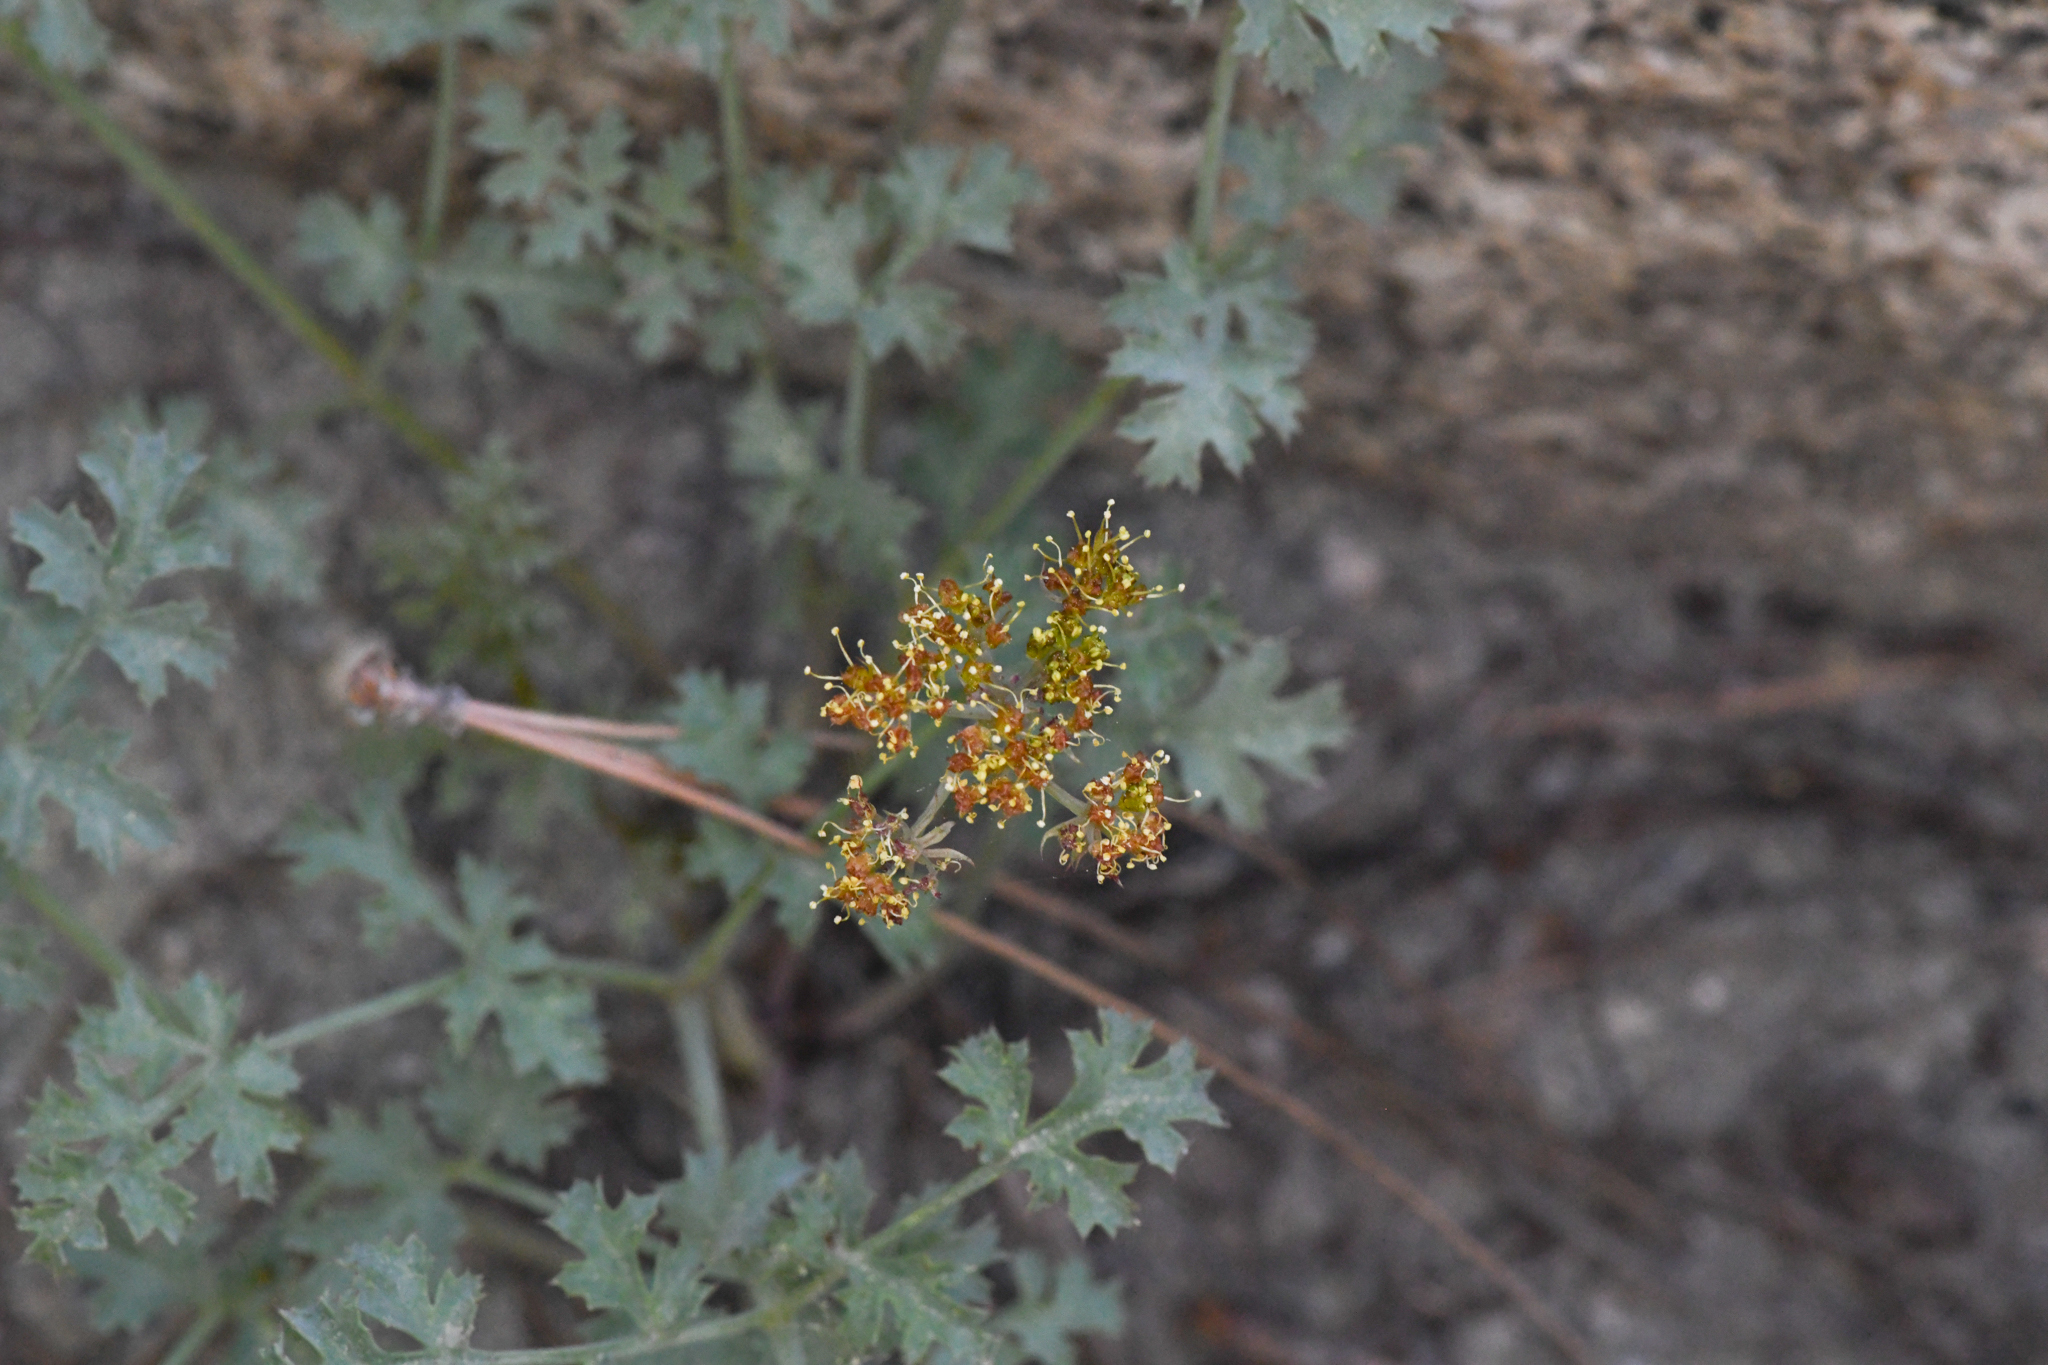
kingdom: Plantae
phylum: Tracheophyta
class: Magnoliopsida
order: Apiales
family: Apiaceae
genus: Lomatium
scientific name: Lomatium rigidum
